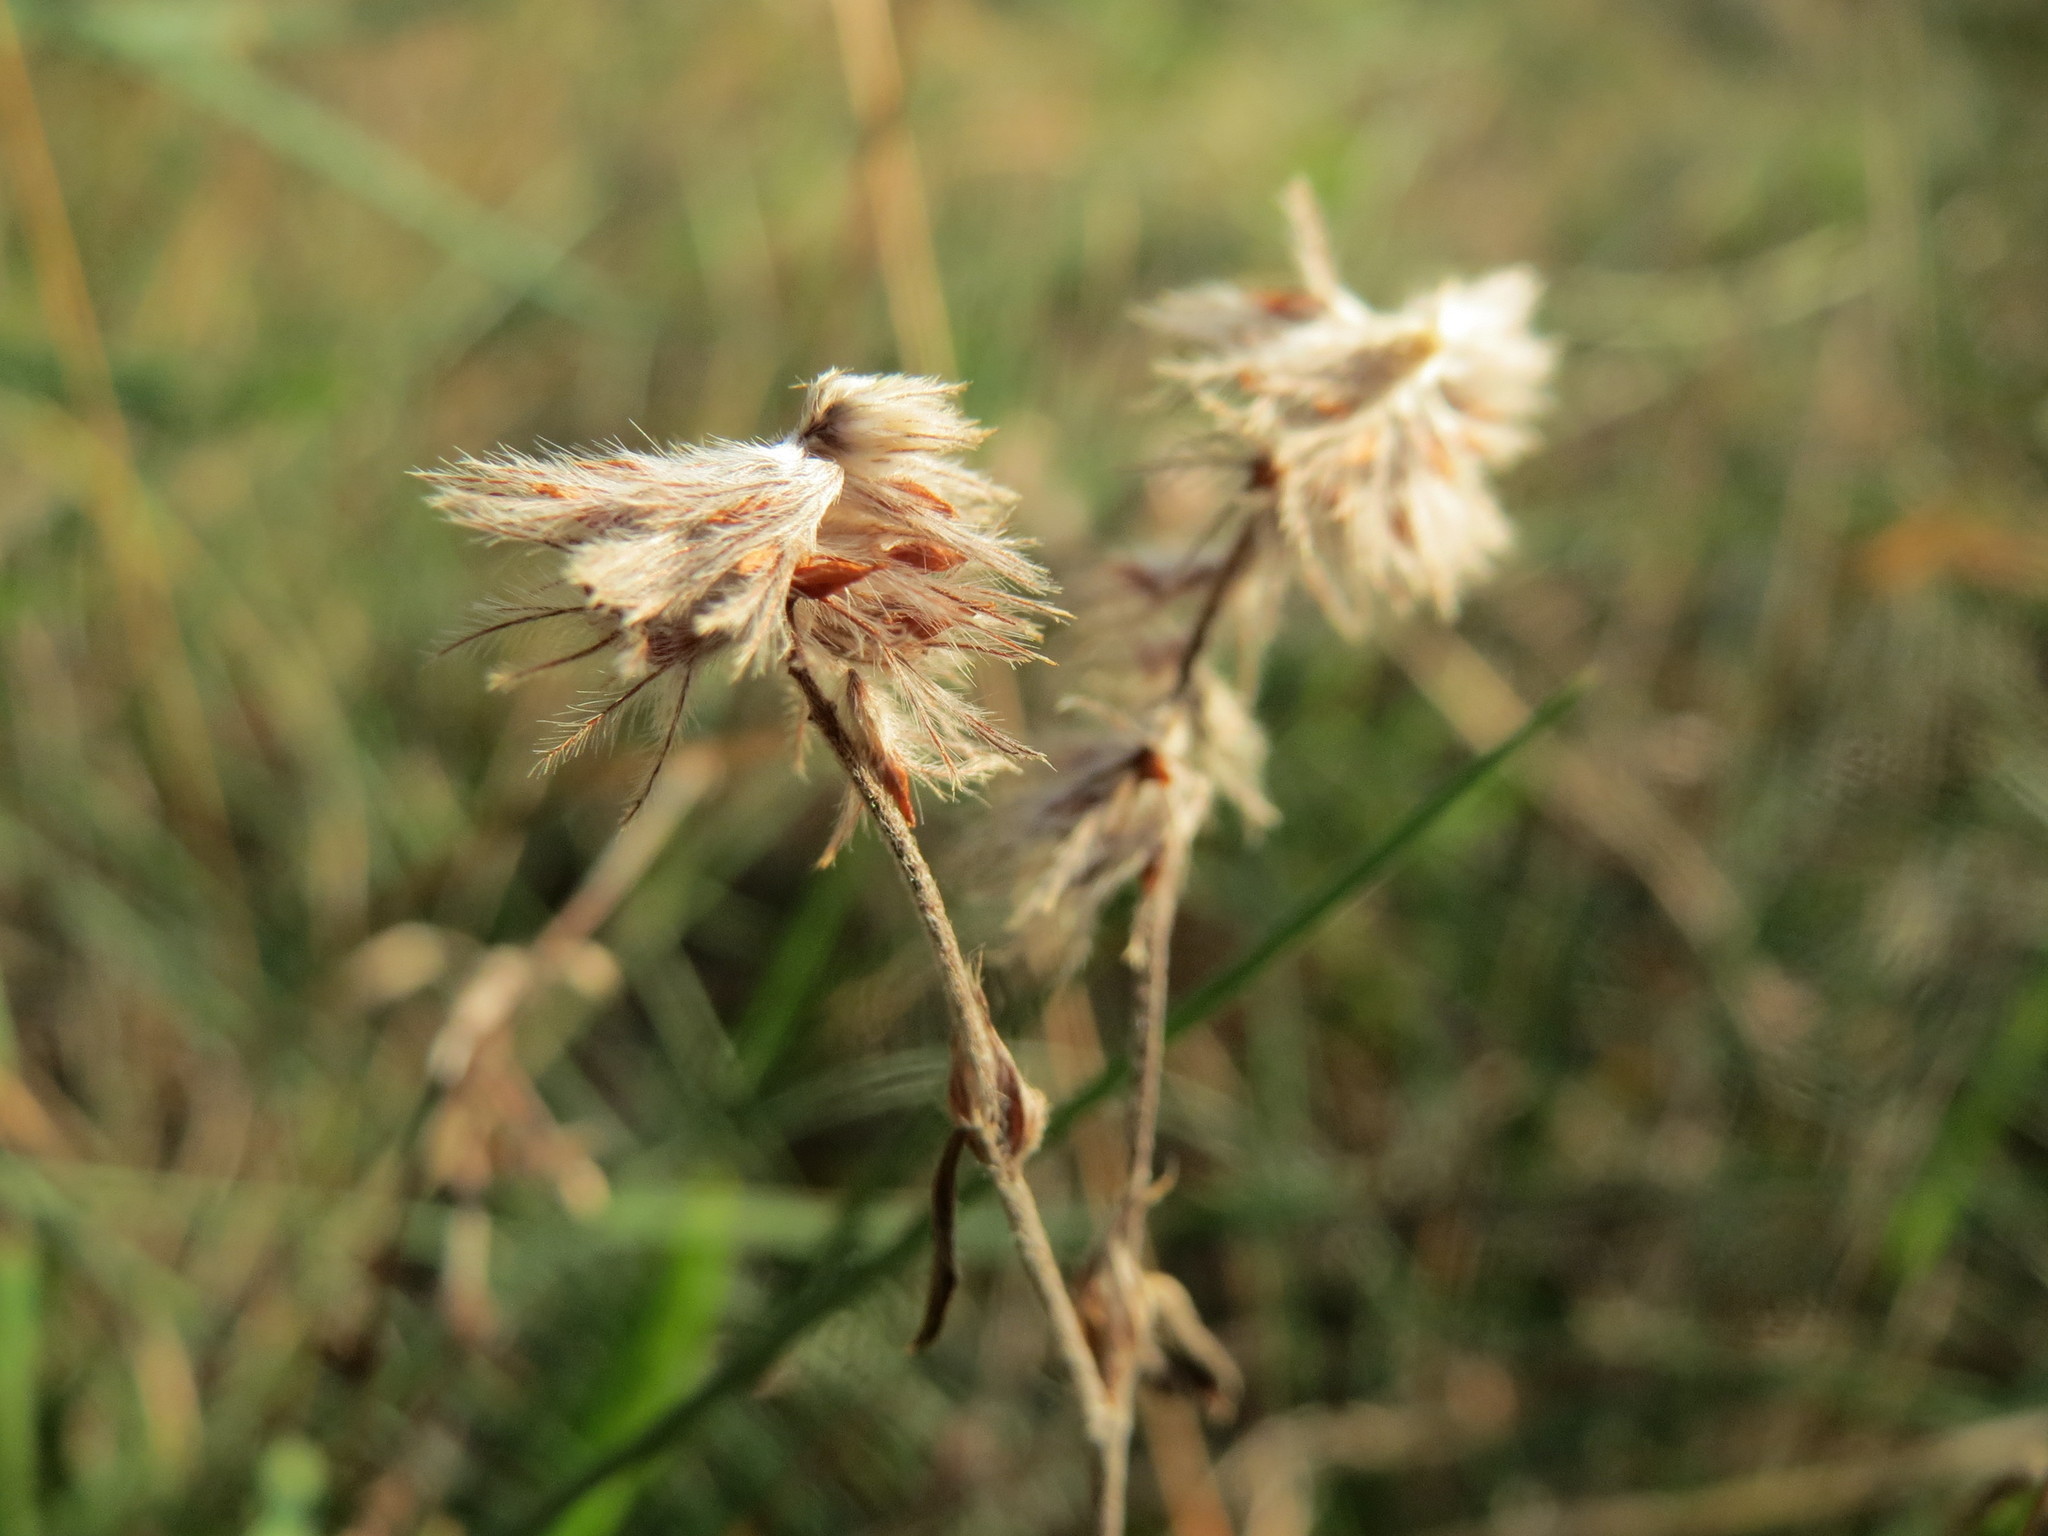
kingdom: Plantae
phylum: Tracheophyta
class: Magnoliopsida
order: Fabales
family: Fabaceae
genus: Trifolium
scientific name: Trifolium arvense
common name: Hare's-foot clover
